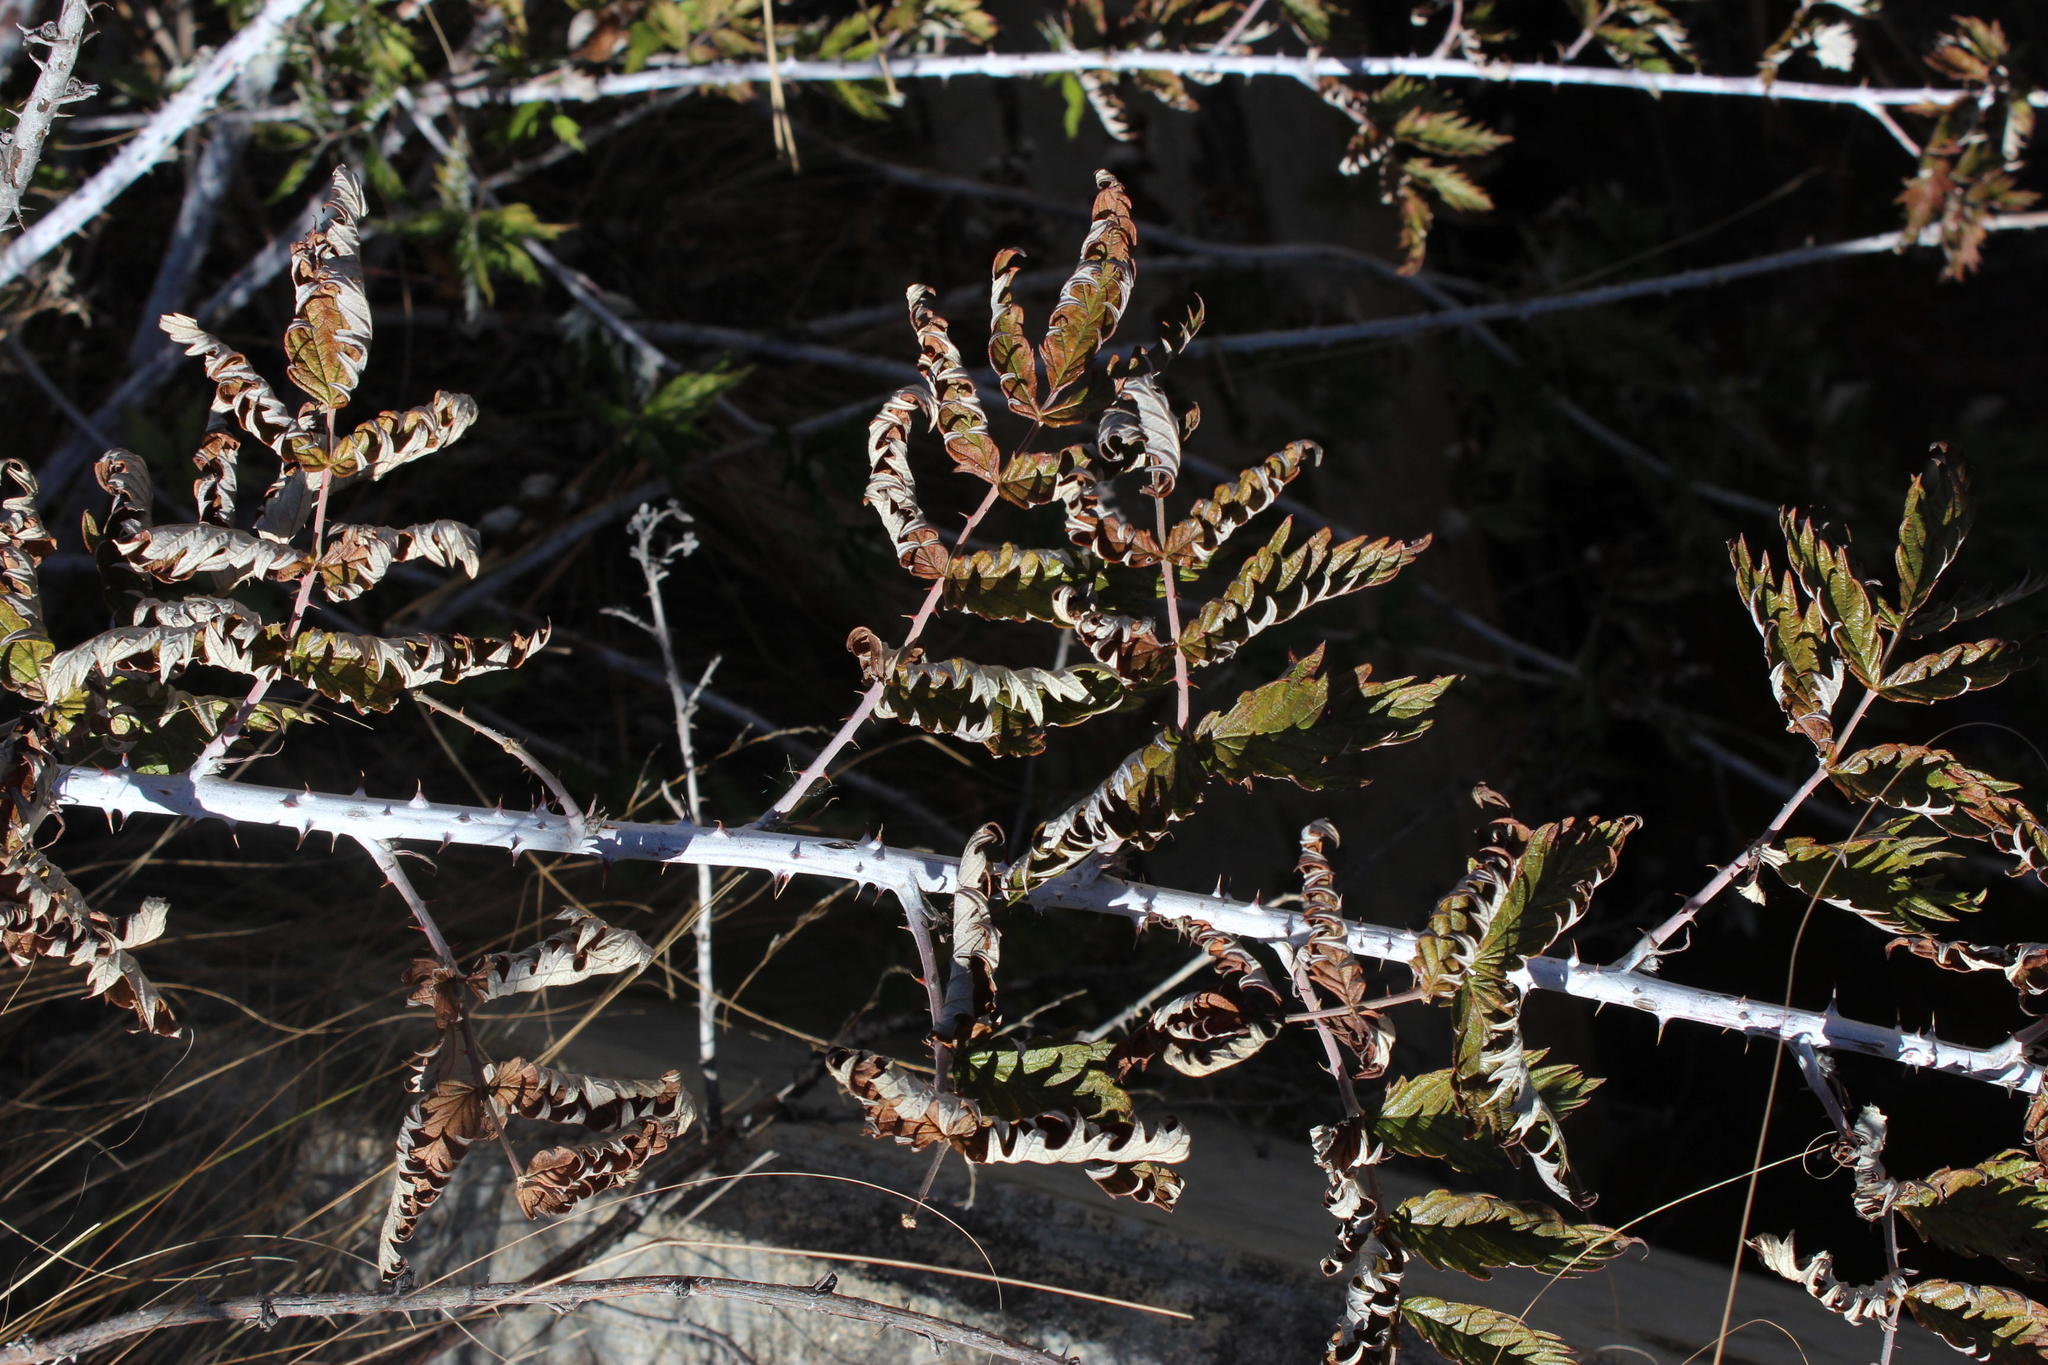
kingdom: Plantae
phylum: Tracheophyta
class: Magnoliopsida
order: Rosales
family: Rosaceae
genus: Rubus
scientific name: Rubus ludwigii
